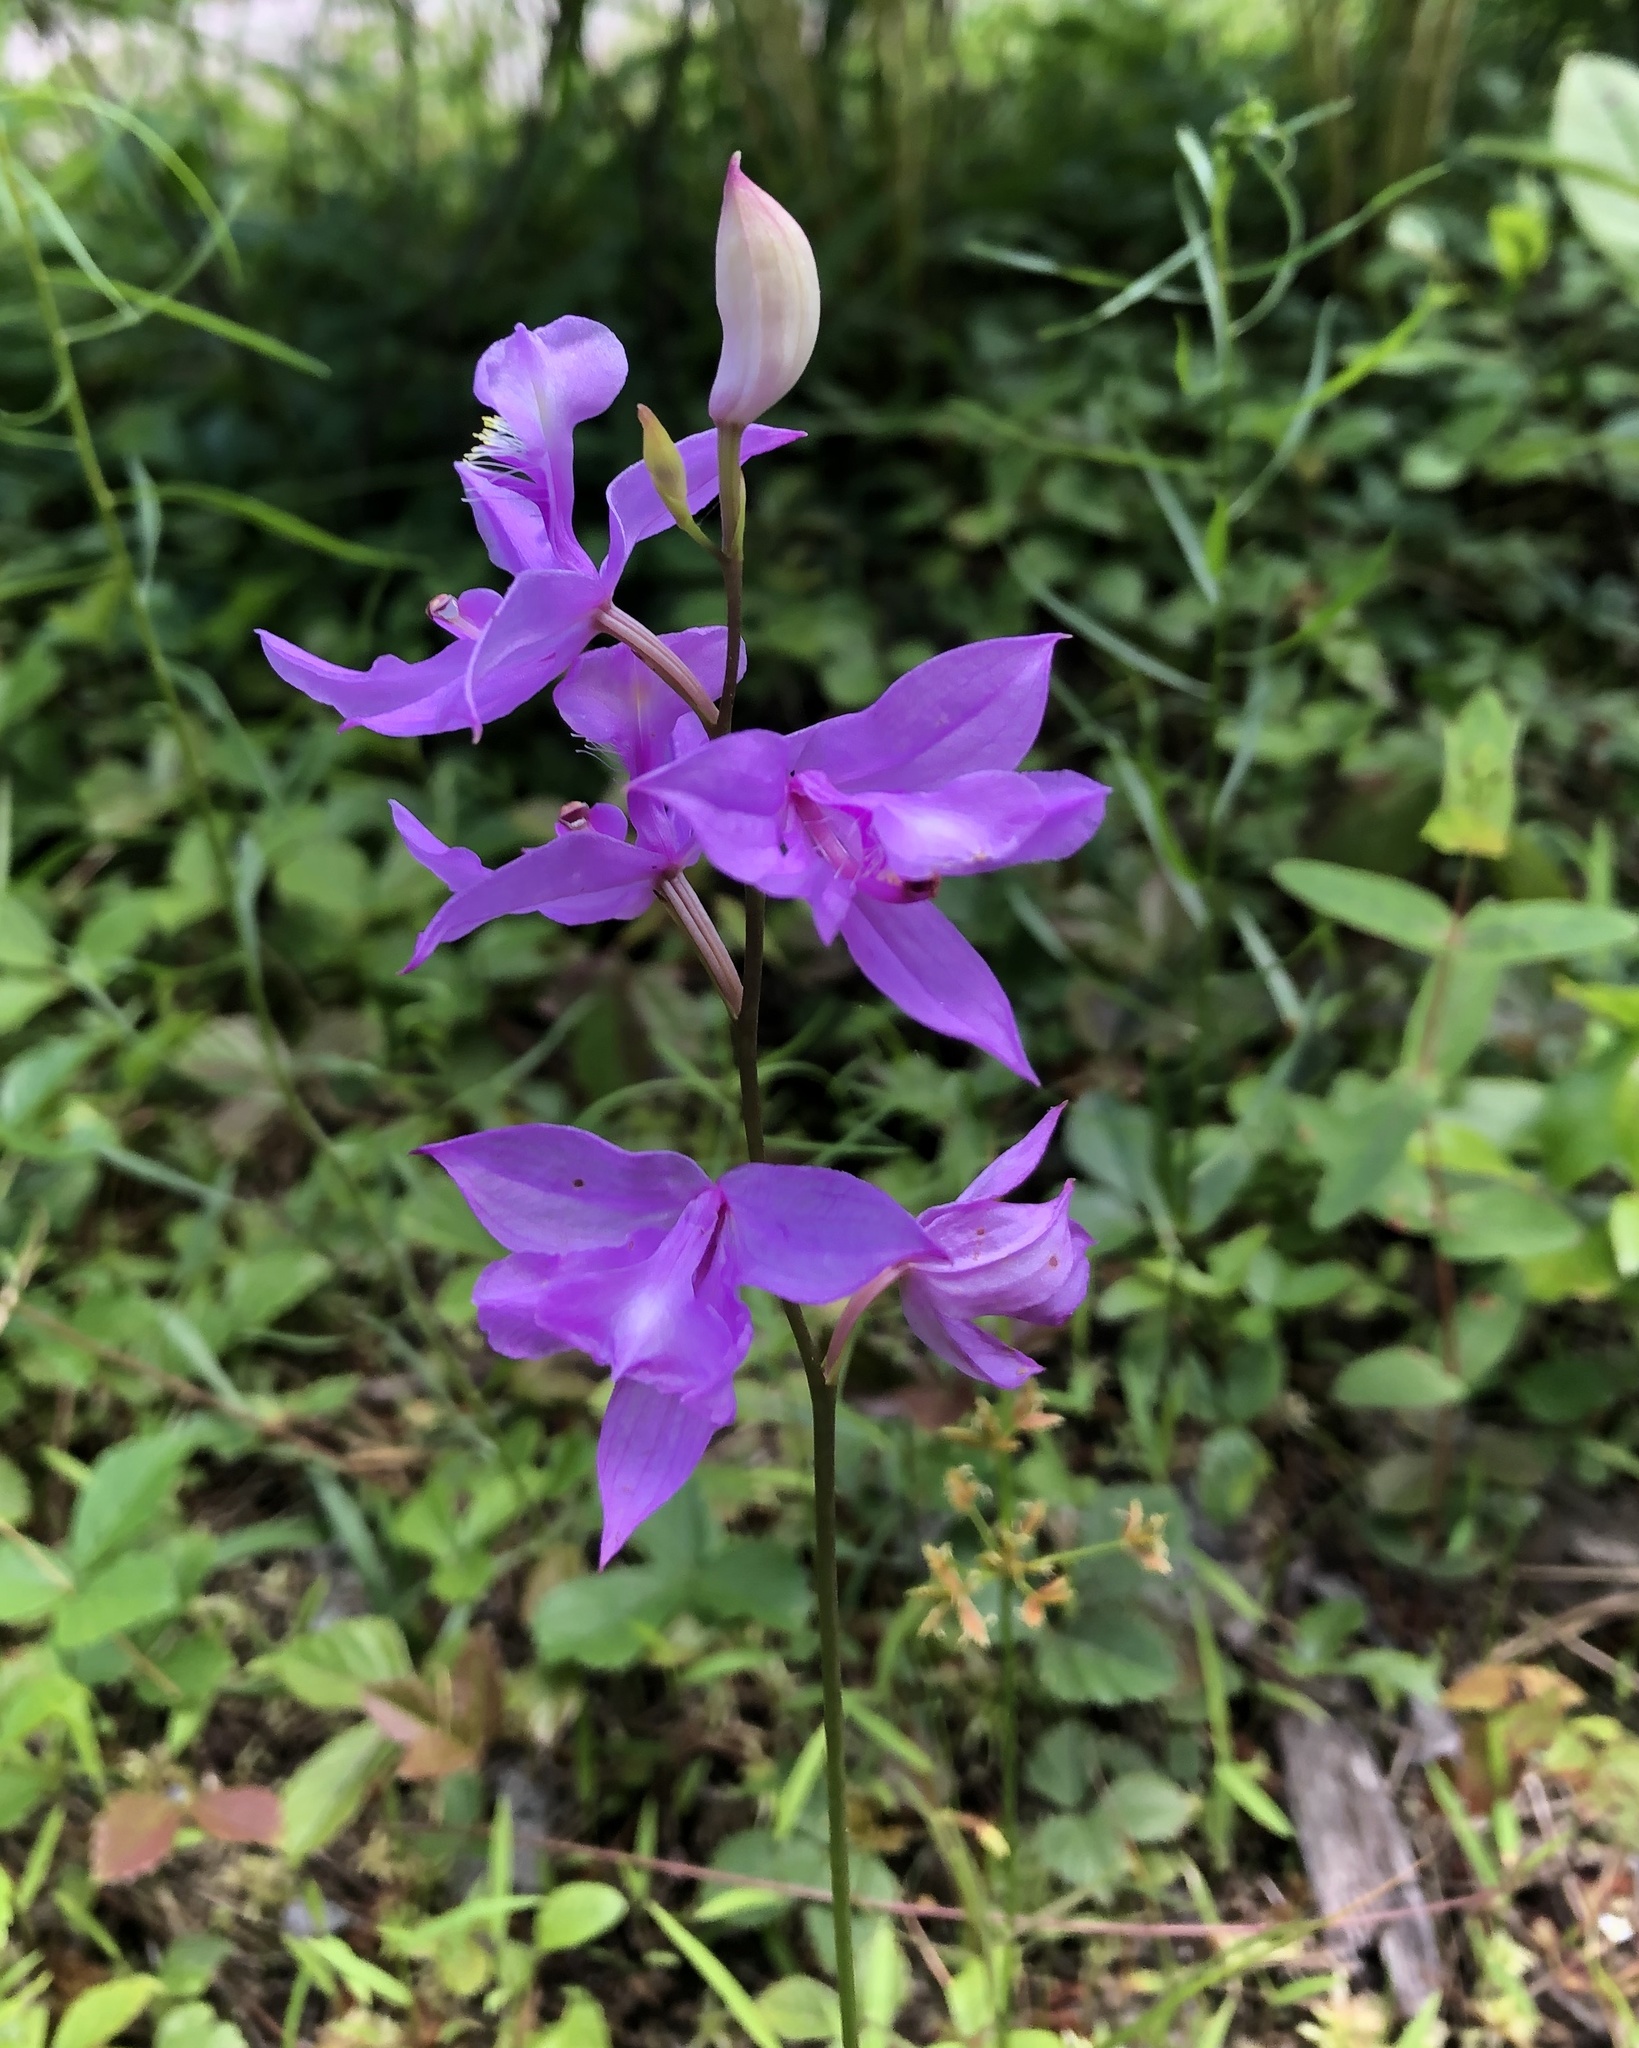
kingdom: Plantae
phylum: Tracheophyta
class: Liliopsida
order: Asparagales
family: Orchidaceae
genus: Calopogon
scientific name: Calopogon tuberosus
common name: Grass-pink
